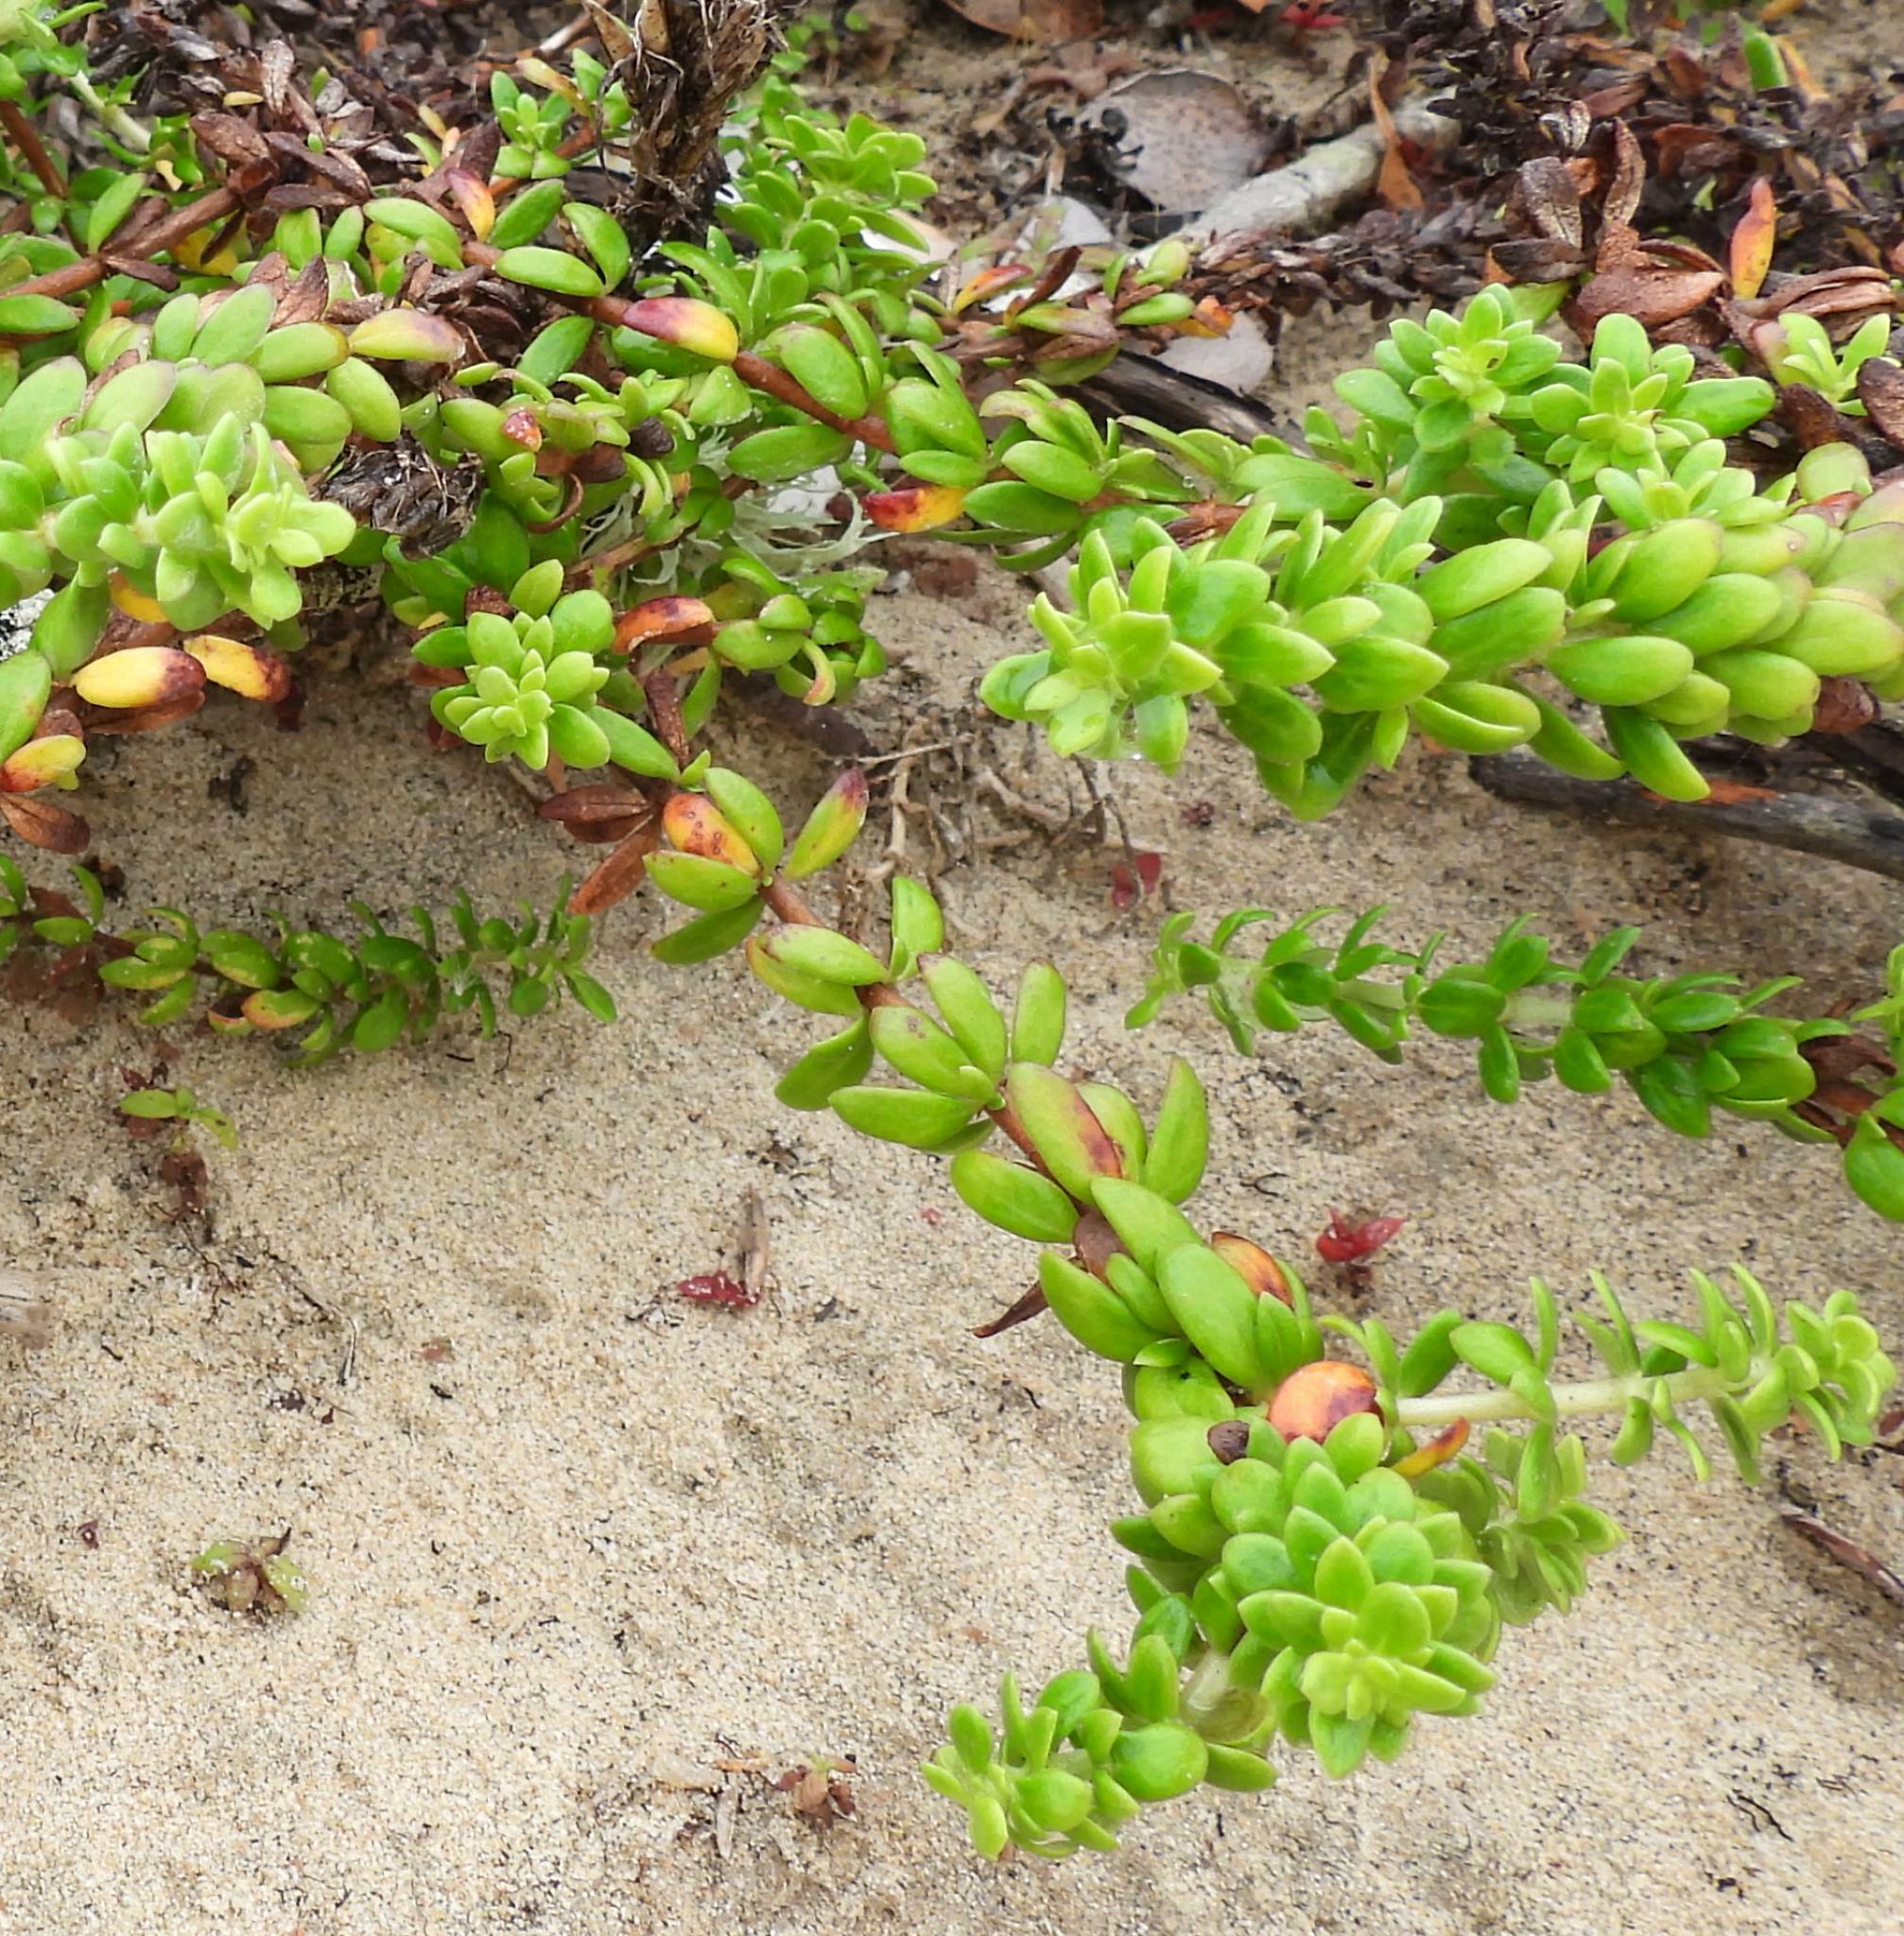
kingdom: Plantae
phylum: Tracheophyta
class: Magnoliopsida
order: Gentianales
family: Rubiaceae
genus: Anthospermum
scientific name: Anthospermum littoreum
